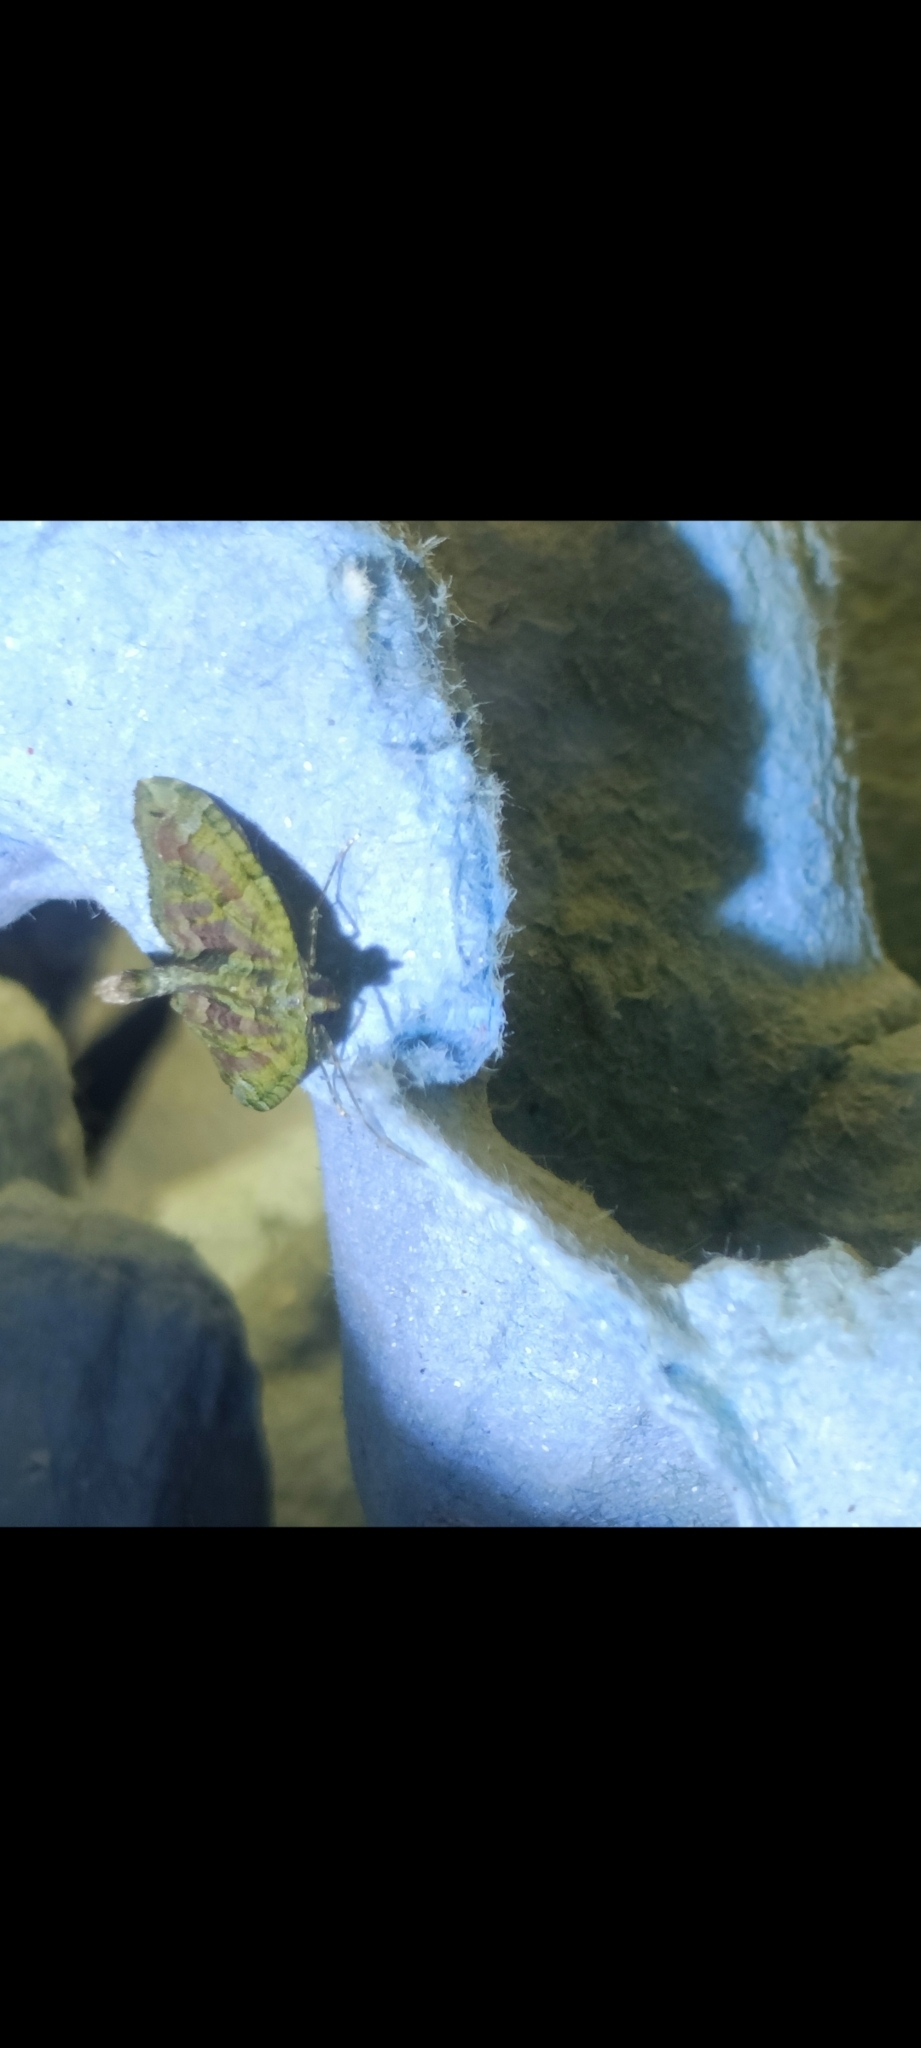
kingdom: Animalia
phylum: Arthropoda
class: Insecta
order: Lepidoptera
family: Geometridae
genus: Chloroclysta
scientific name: Chloroclysta siterata
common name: Red-green carpet
